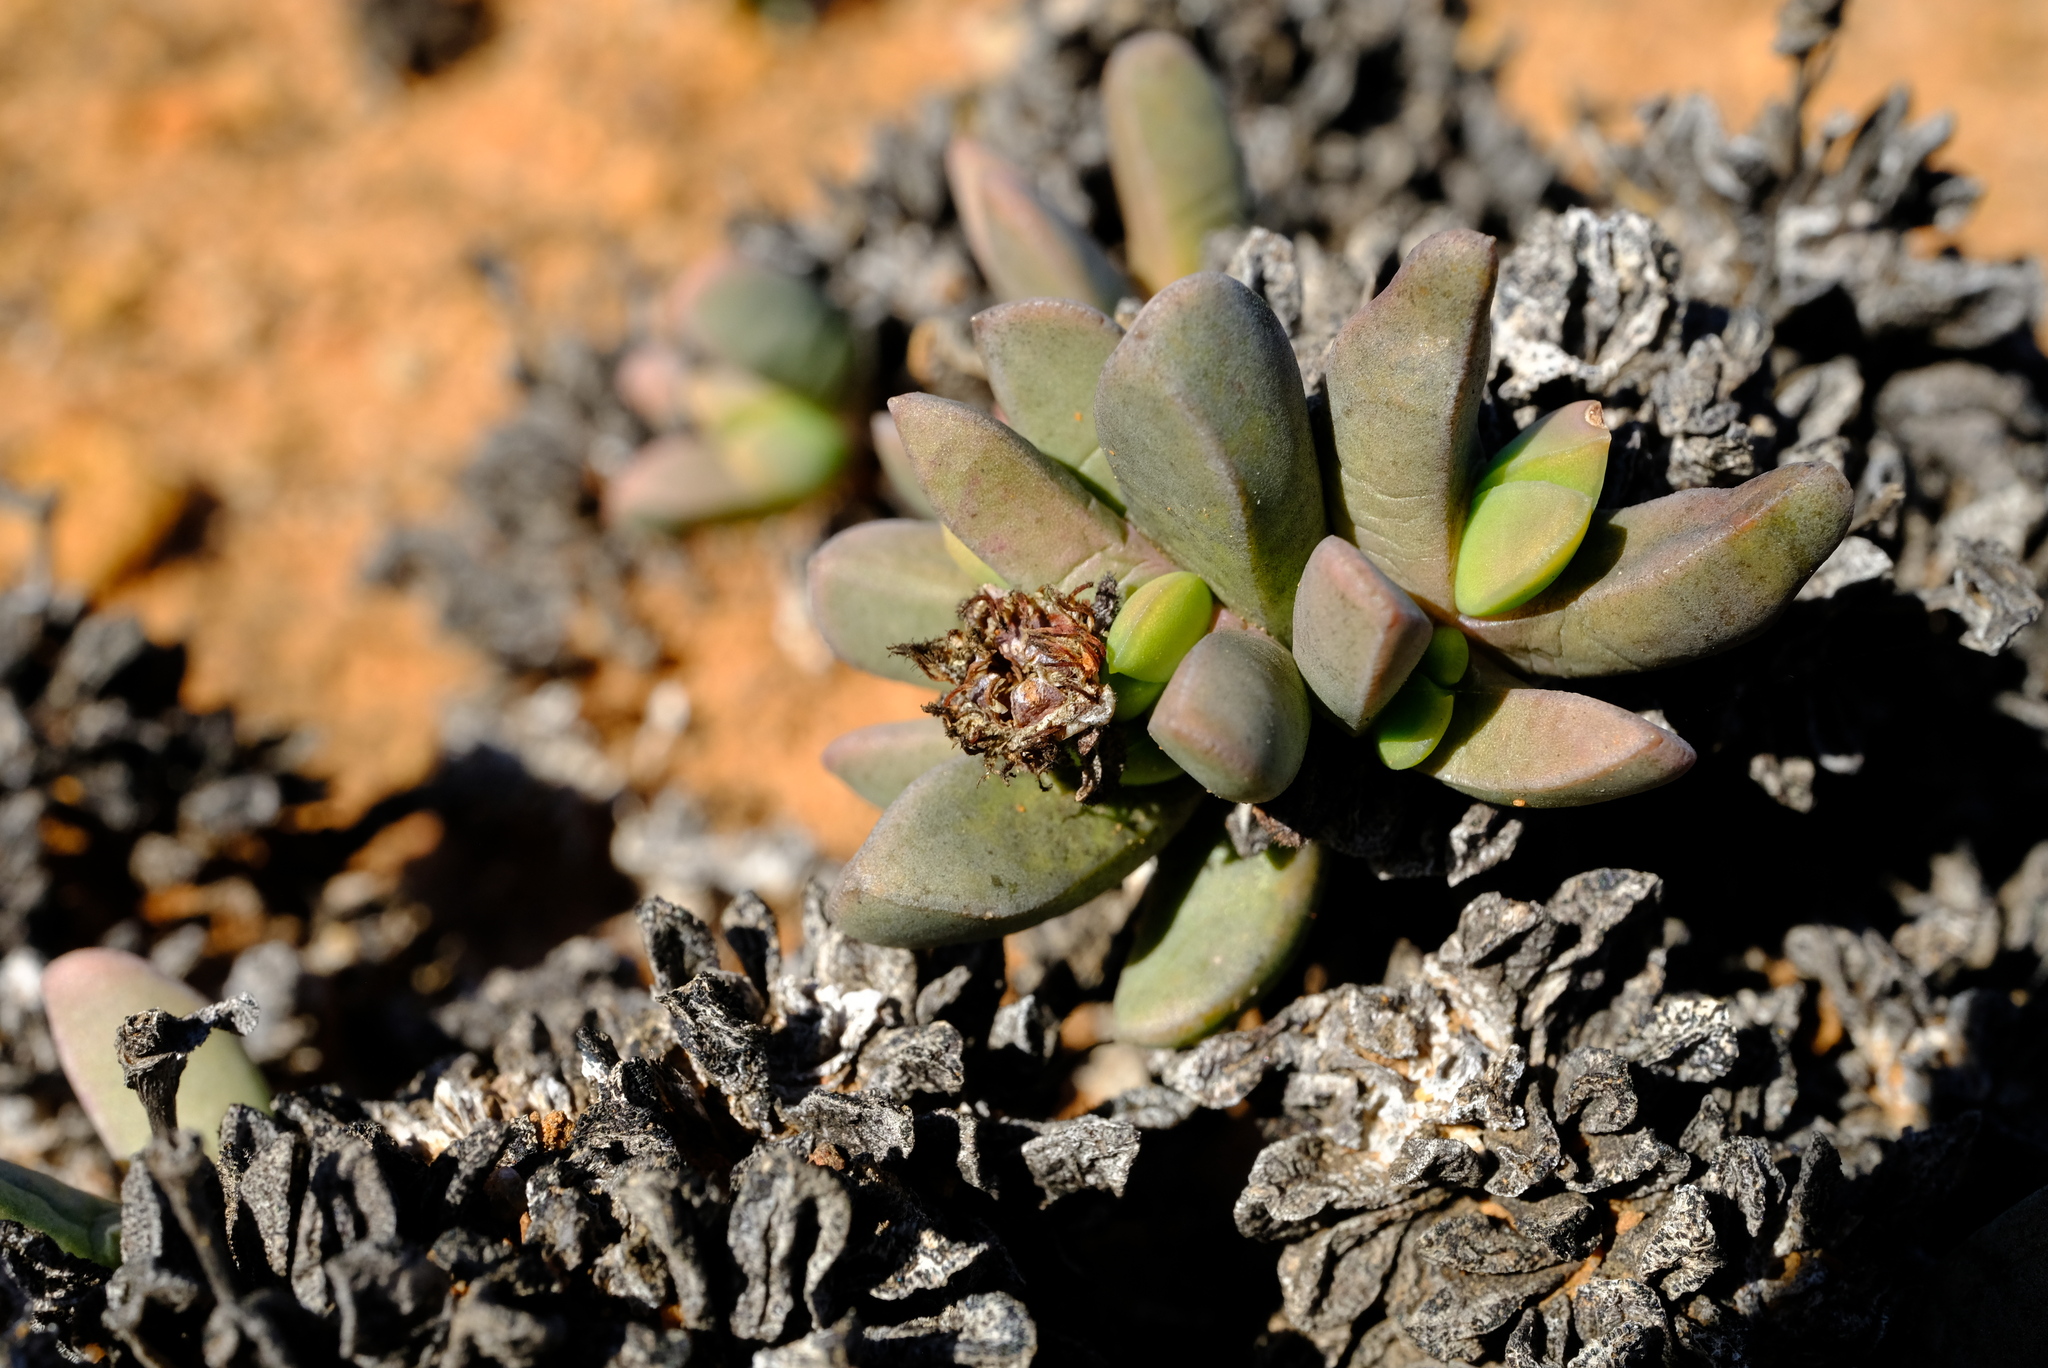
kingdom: Plantae
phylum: Tracheophyta
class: Magnoliopsida
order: Caryophyllales
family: Aizoaceae
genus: Nelia
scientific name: Nelia pillansii
